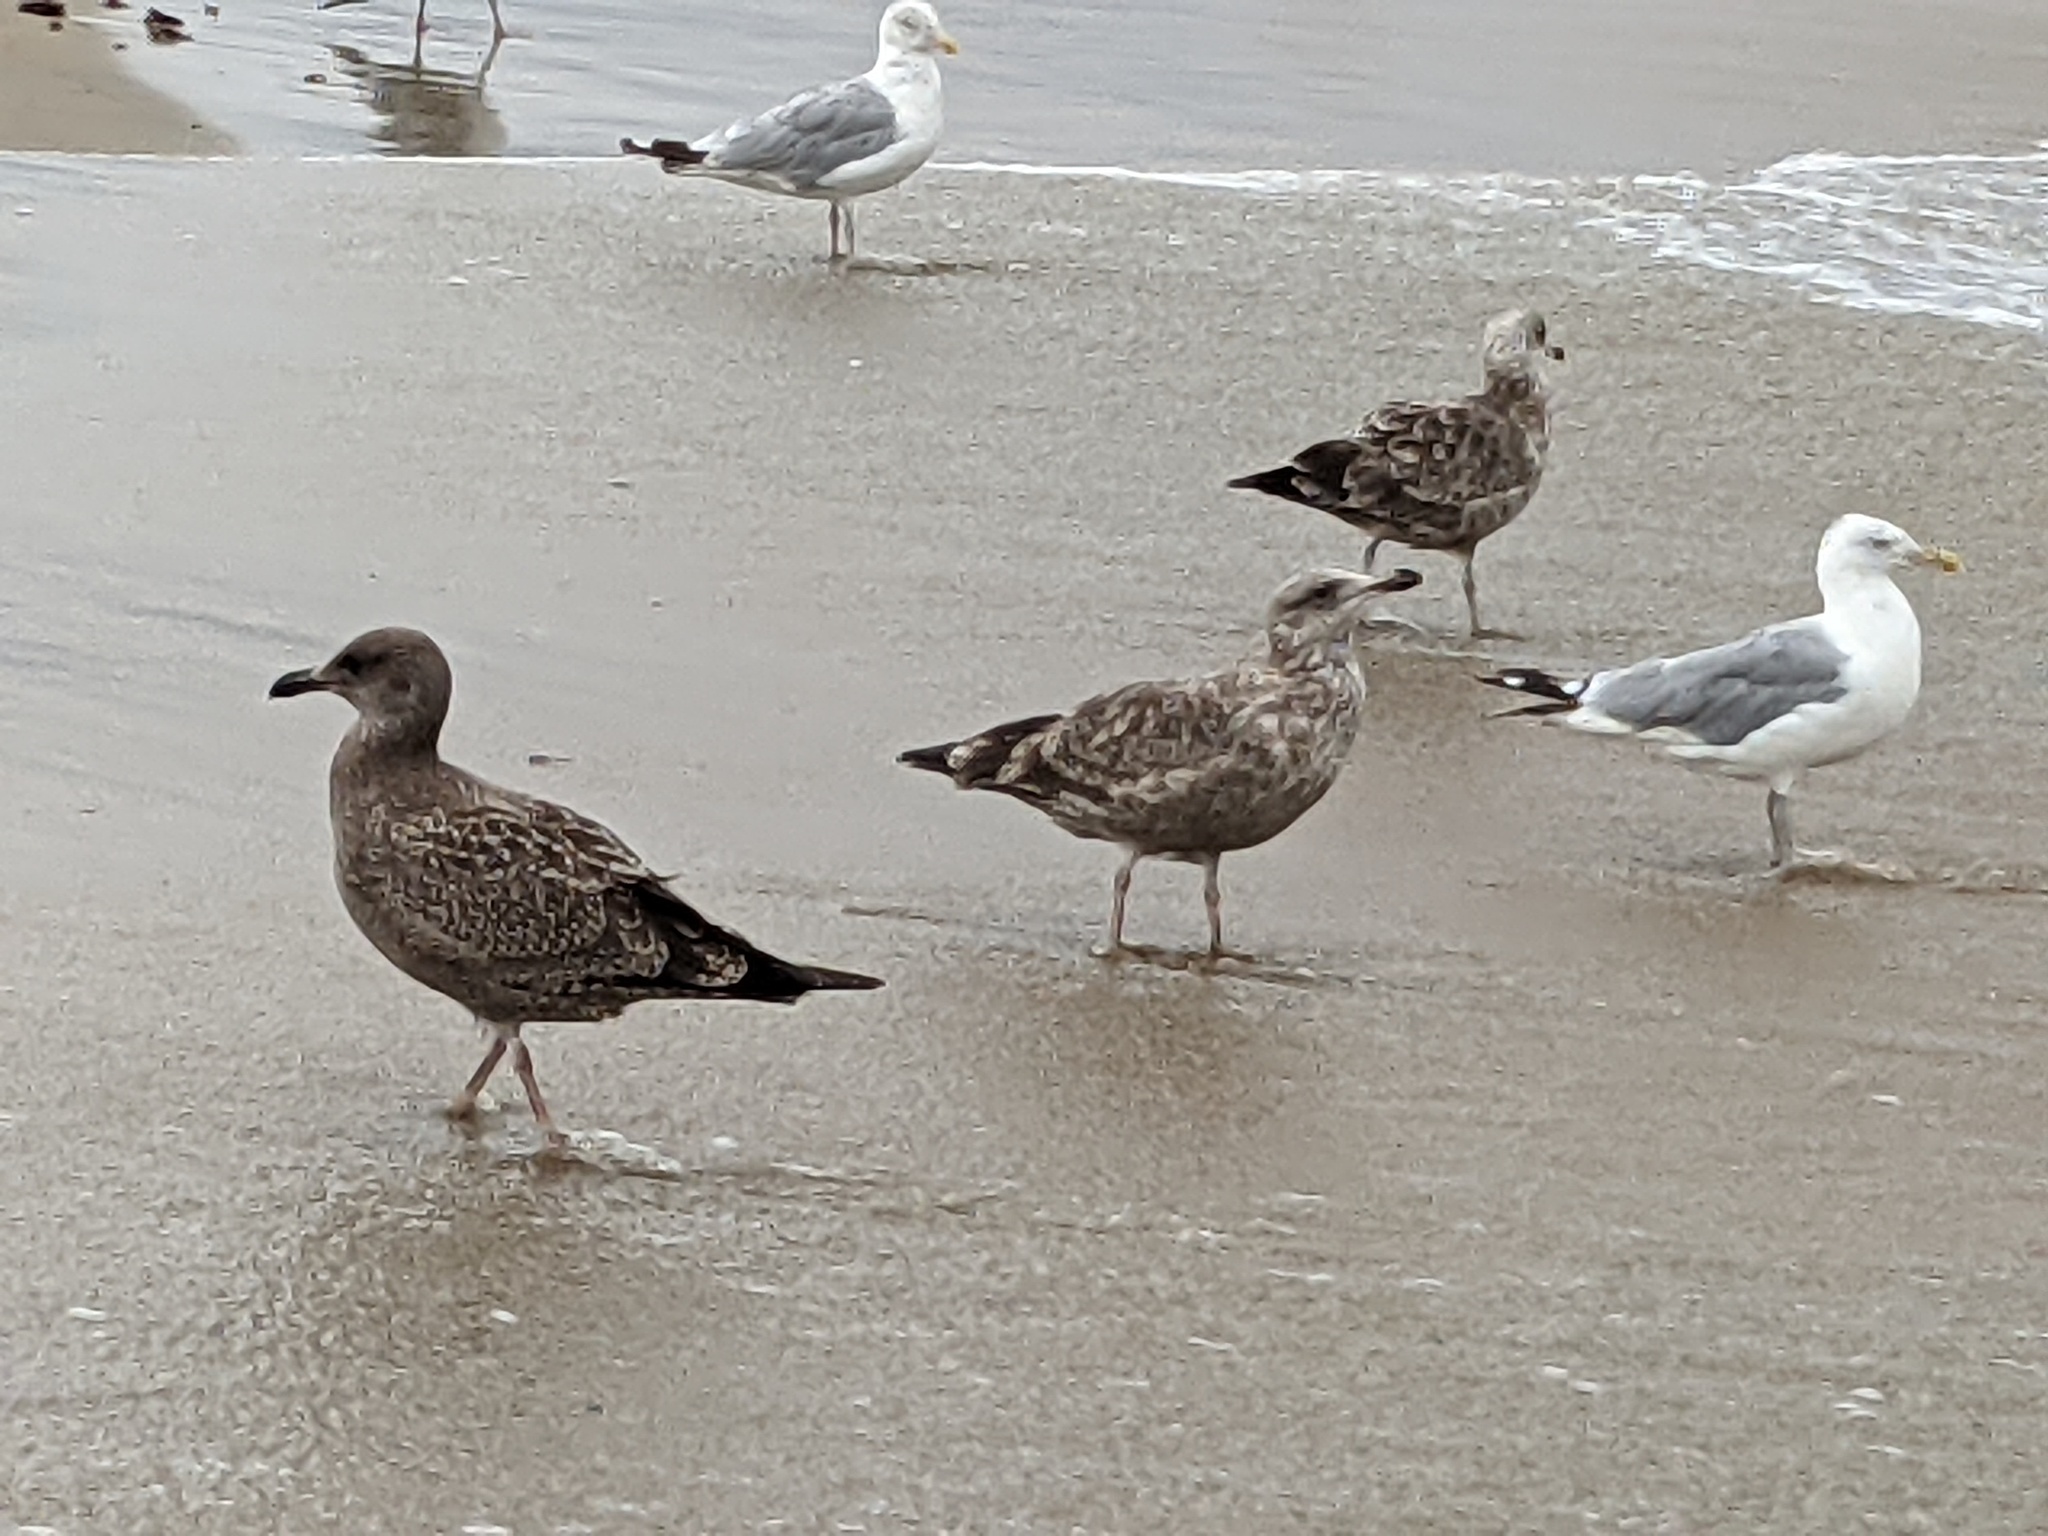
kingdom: Animalia
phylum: Chordata
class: Aves
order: Charadriiformes
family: Laridae
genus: Larus
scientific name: Larus argentatus
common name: Herring gull
